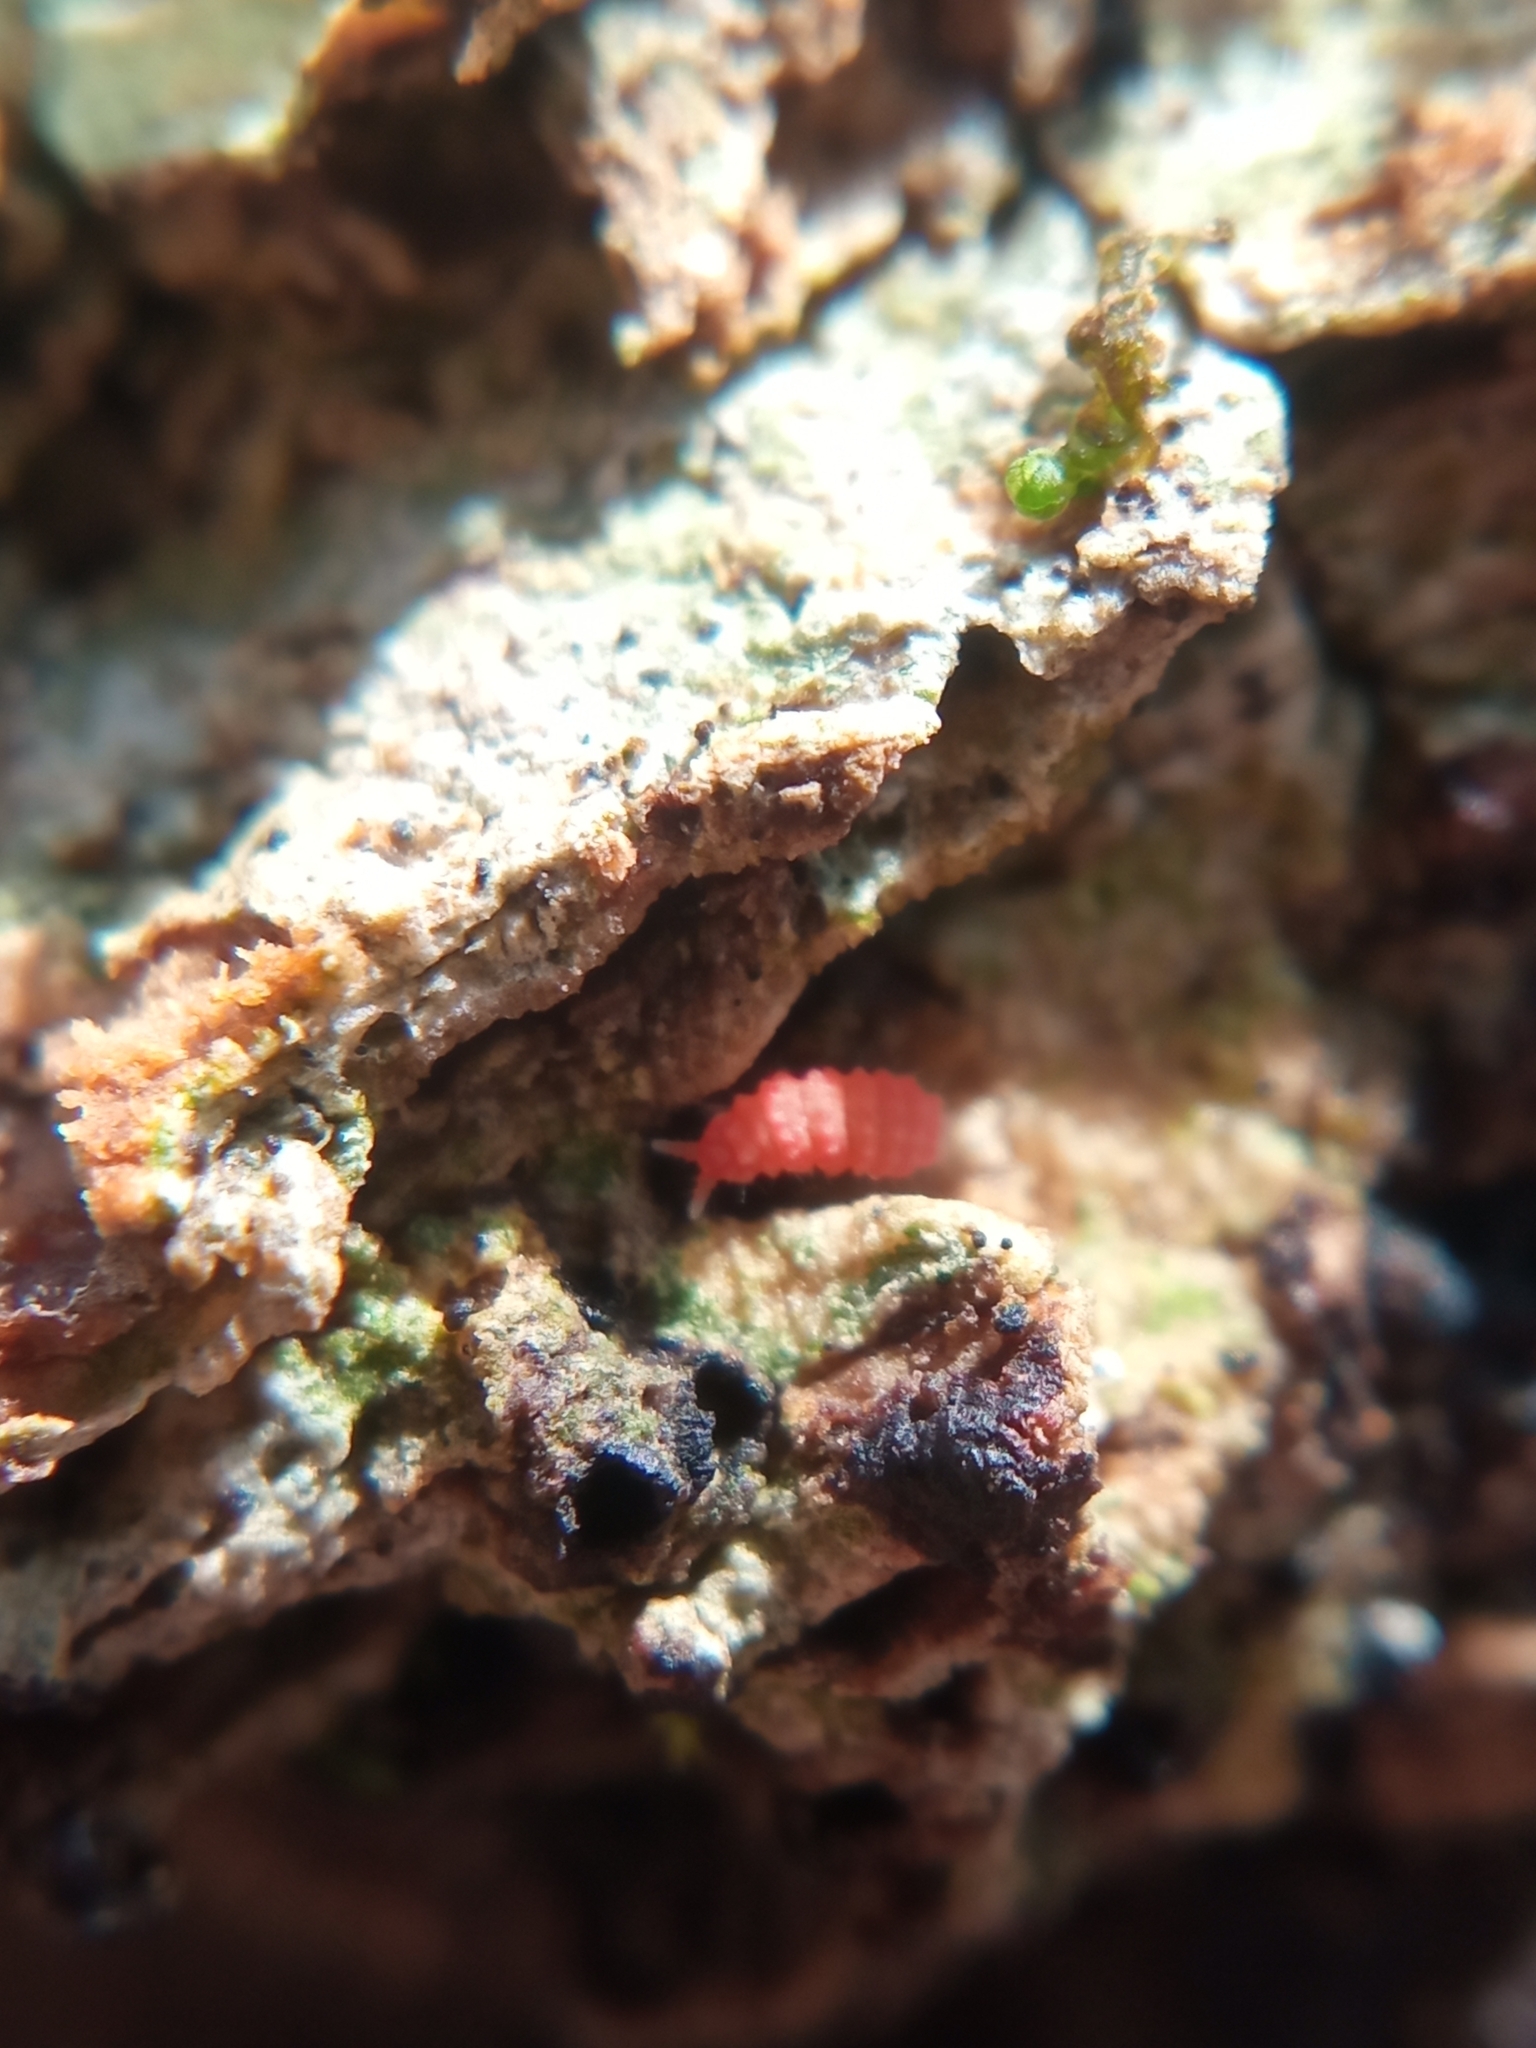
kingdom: Animalia
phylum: Arthropoda
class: Collembola
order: Poduromorpha
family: Neanuridae
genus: Bilobella
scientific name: Bilobella braunerae
